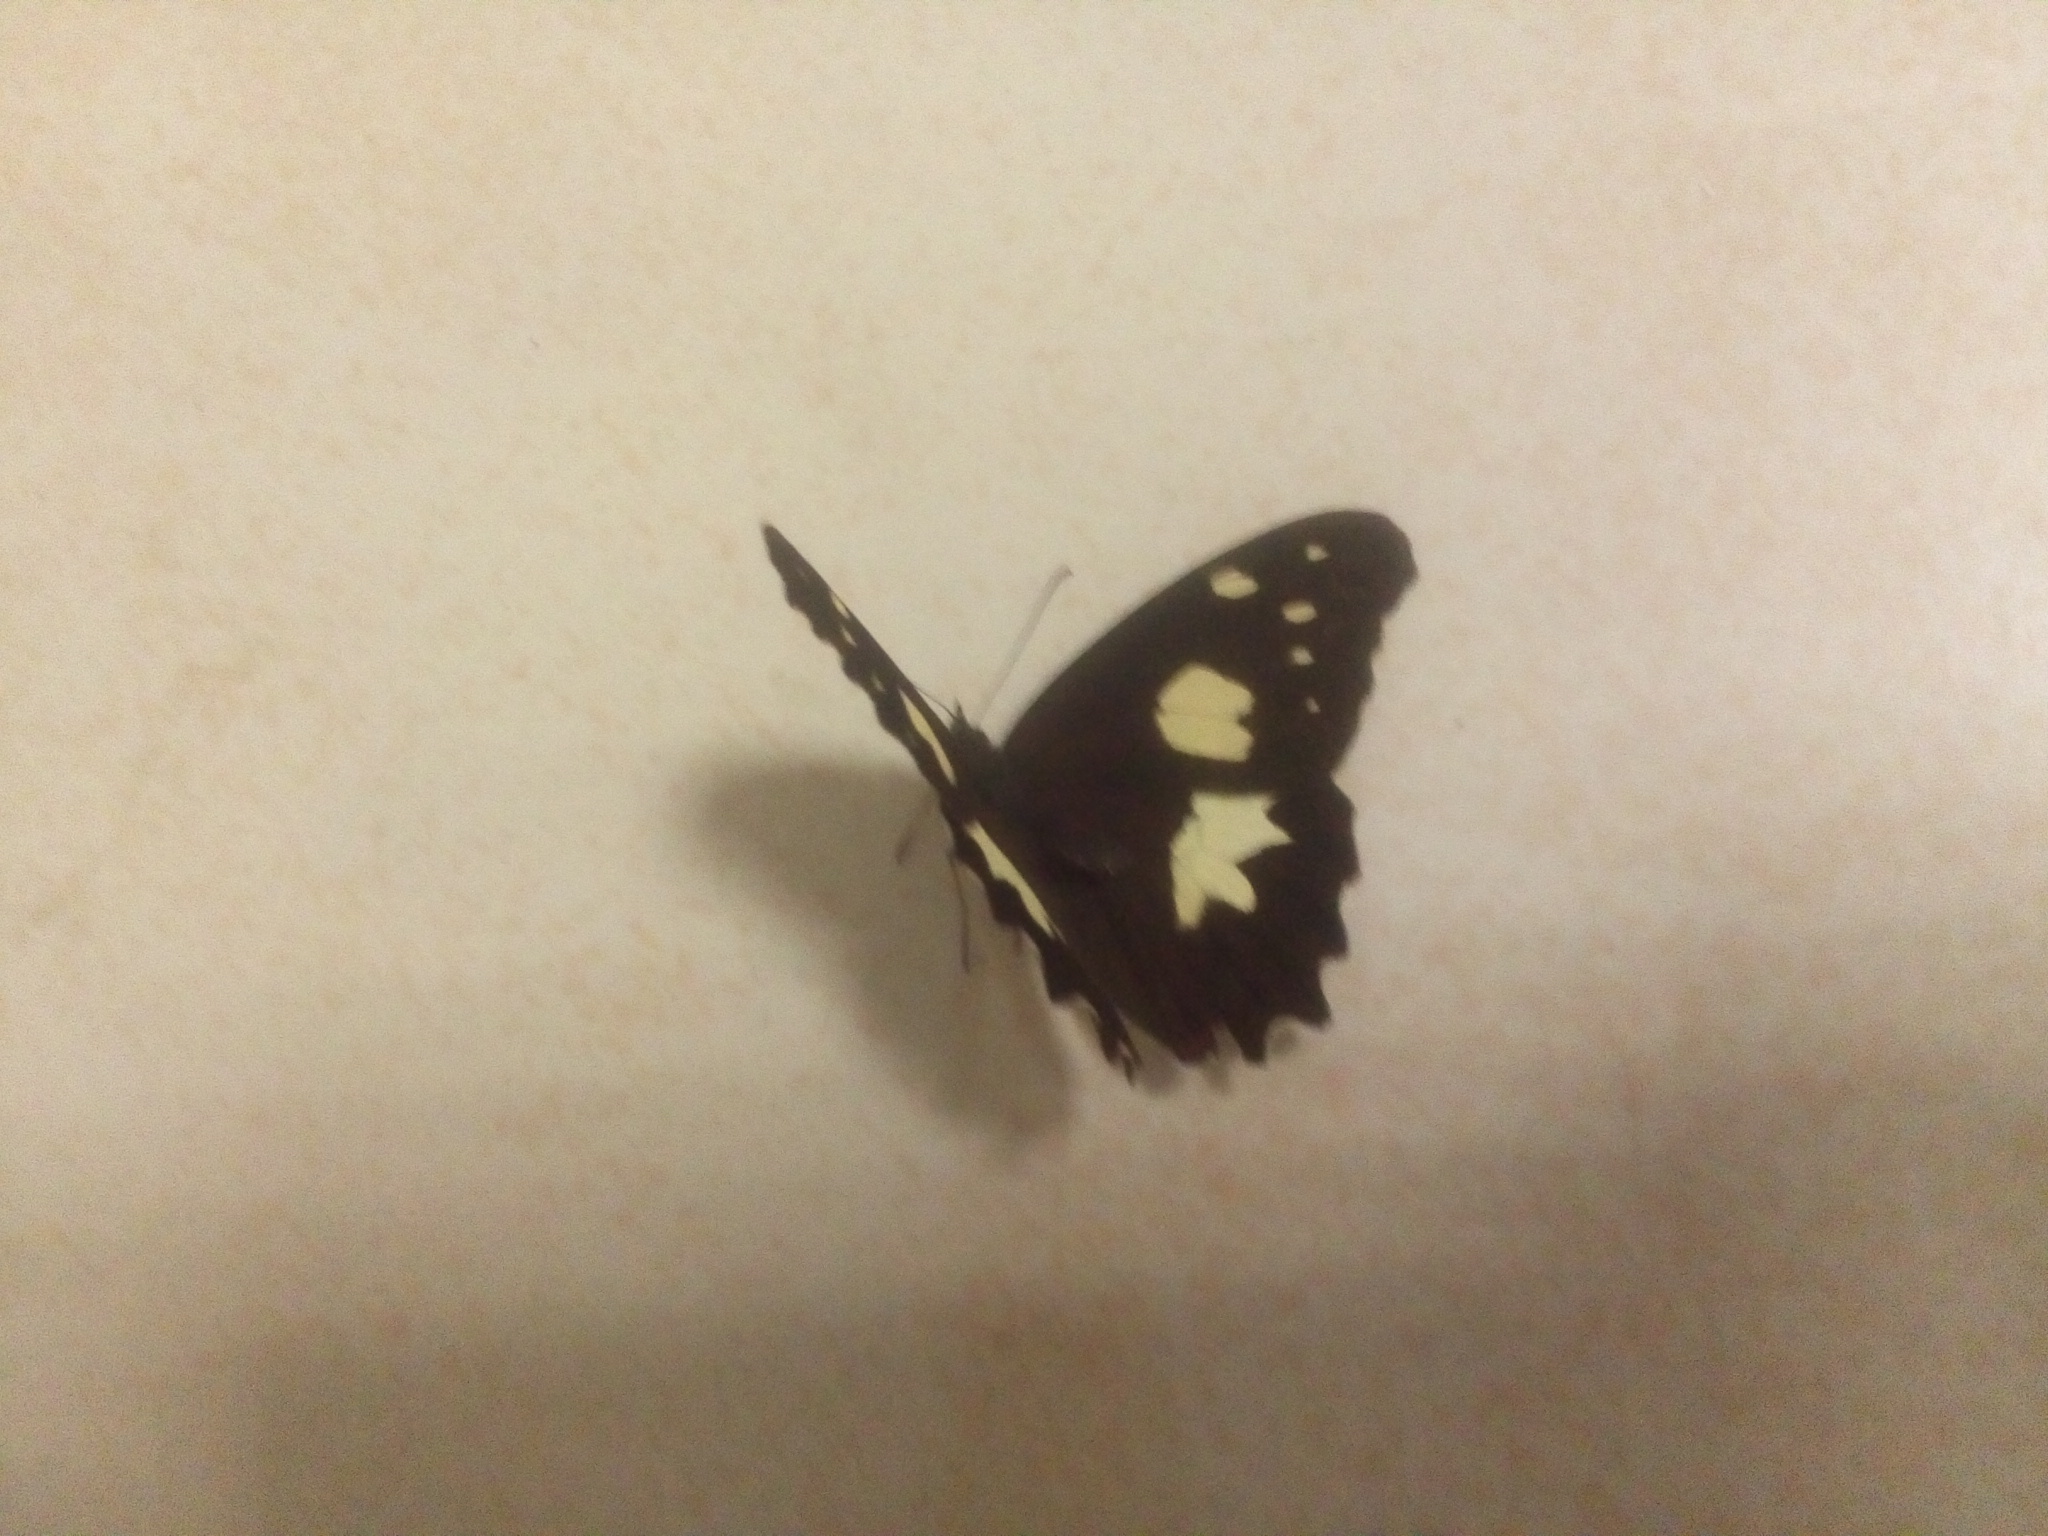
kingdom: Animalia
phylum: Arthropoda
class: Insecta
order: Lepidoptera
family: Nymphalidae
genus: Oxeoschistus
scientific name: Oxeoschistus tauropolis
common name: Starred oxeo
